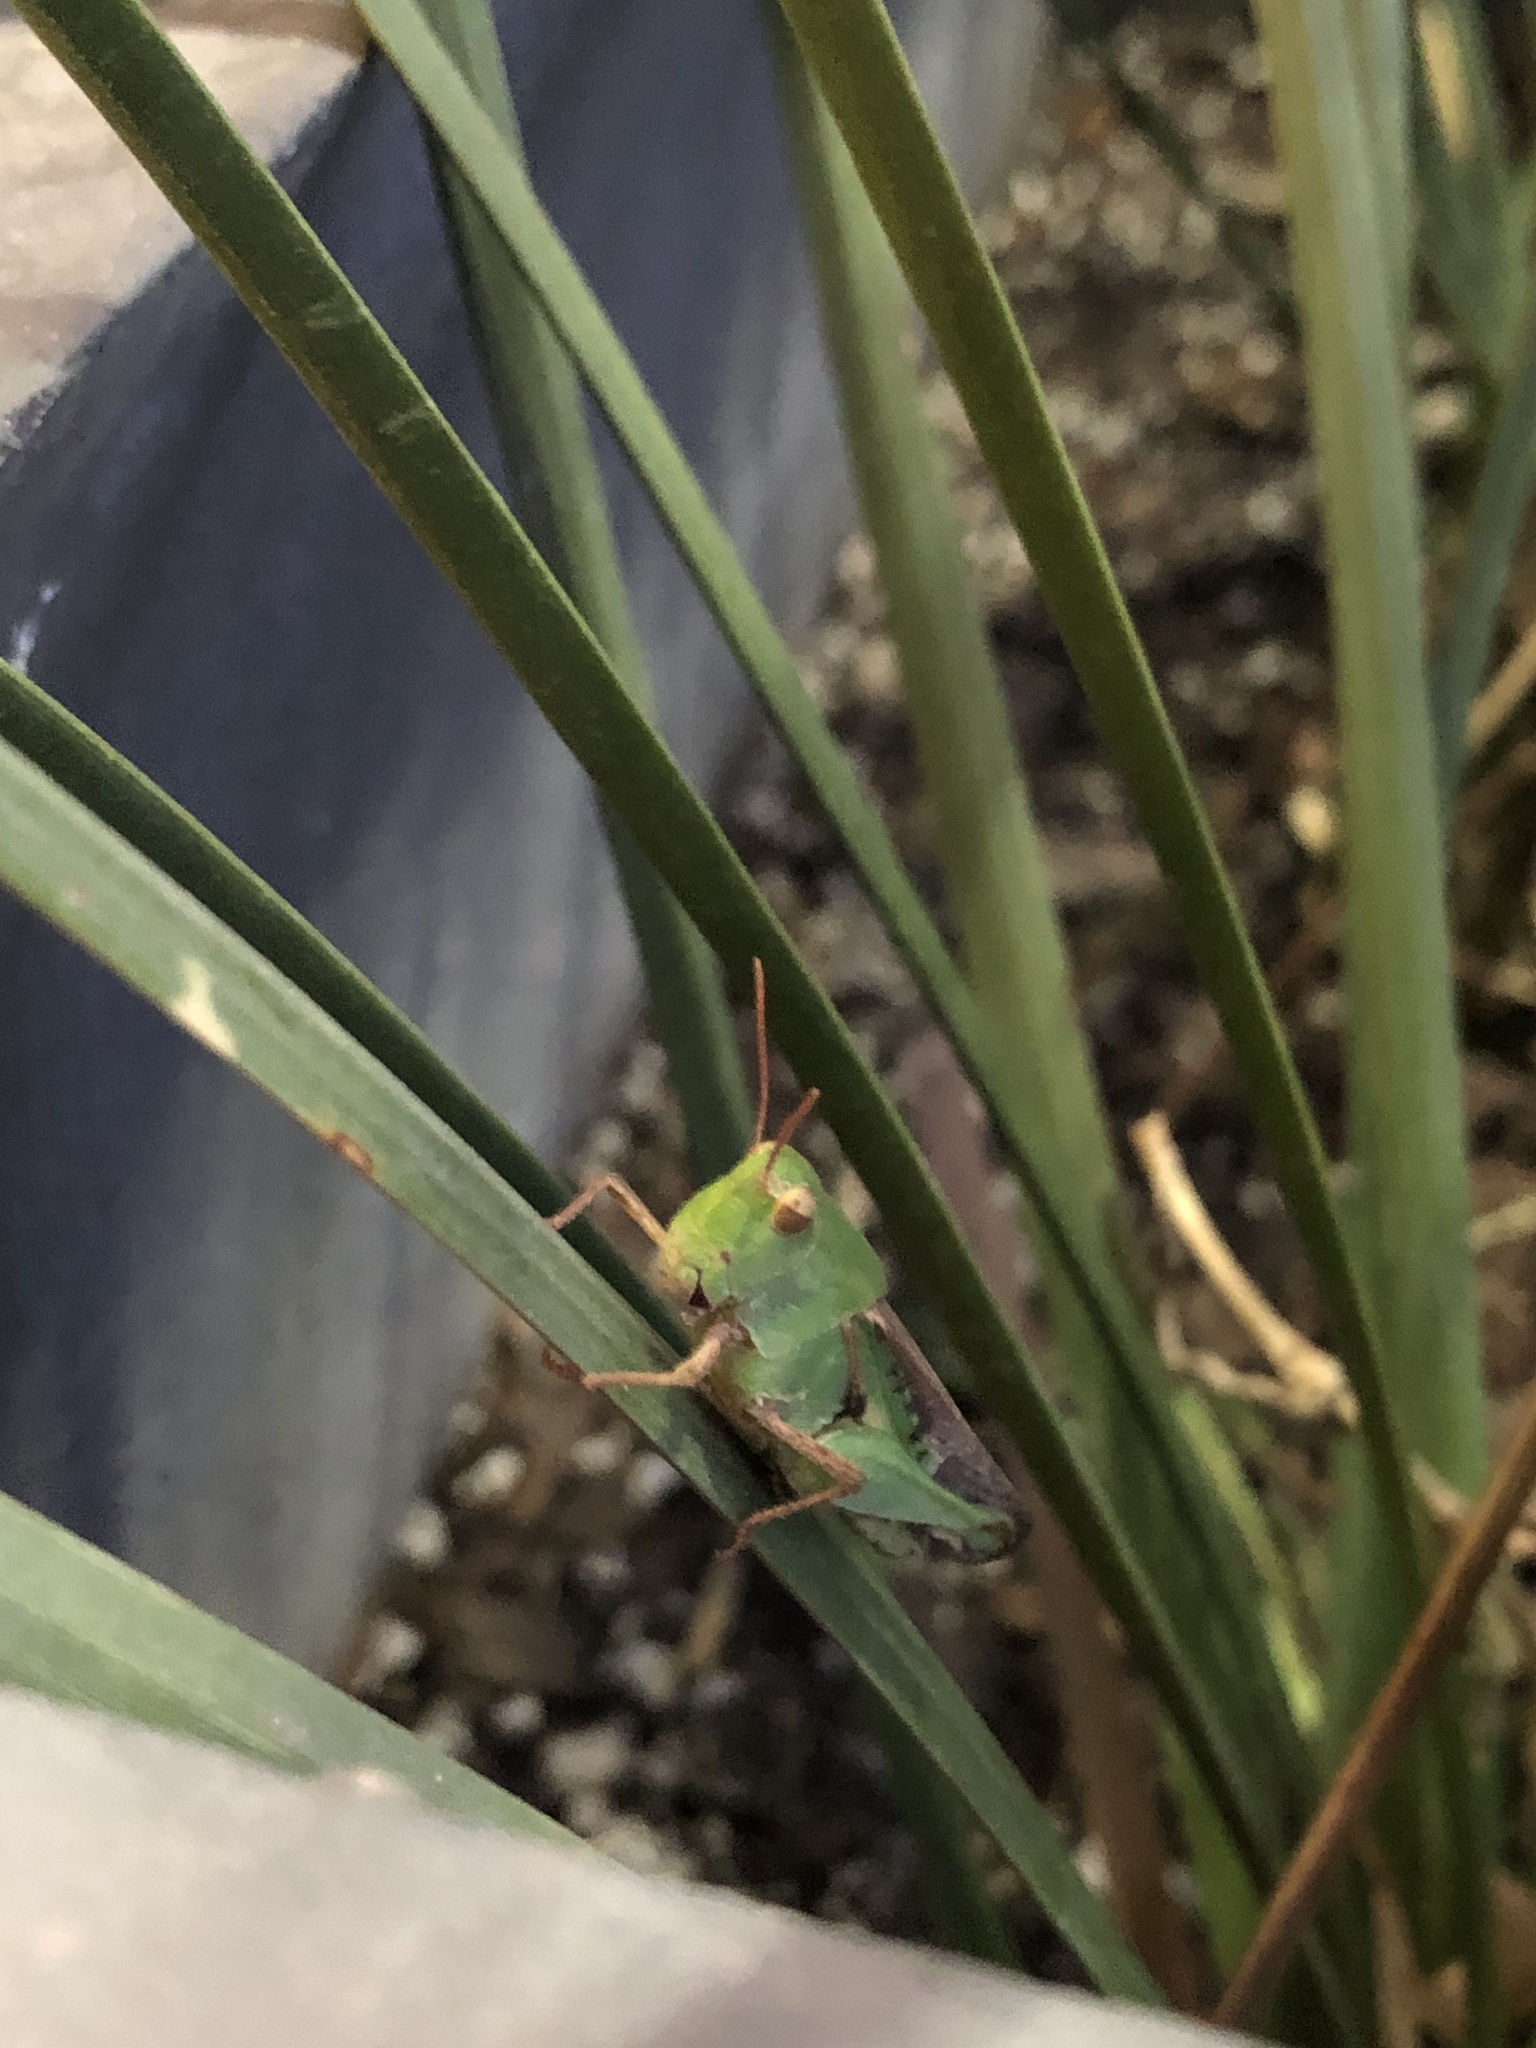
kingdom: Animalia
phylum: Arthropoda
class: Insecta
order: Orthoptera
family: Acrididae
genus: Chortophaga
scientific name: Chortophaga viridifasciata
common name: Green-striped grasshopper
